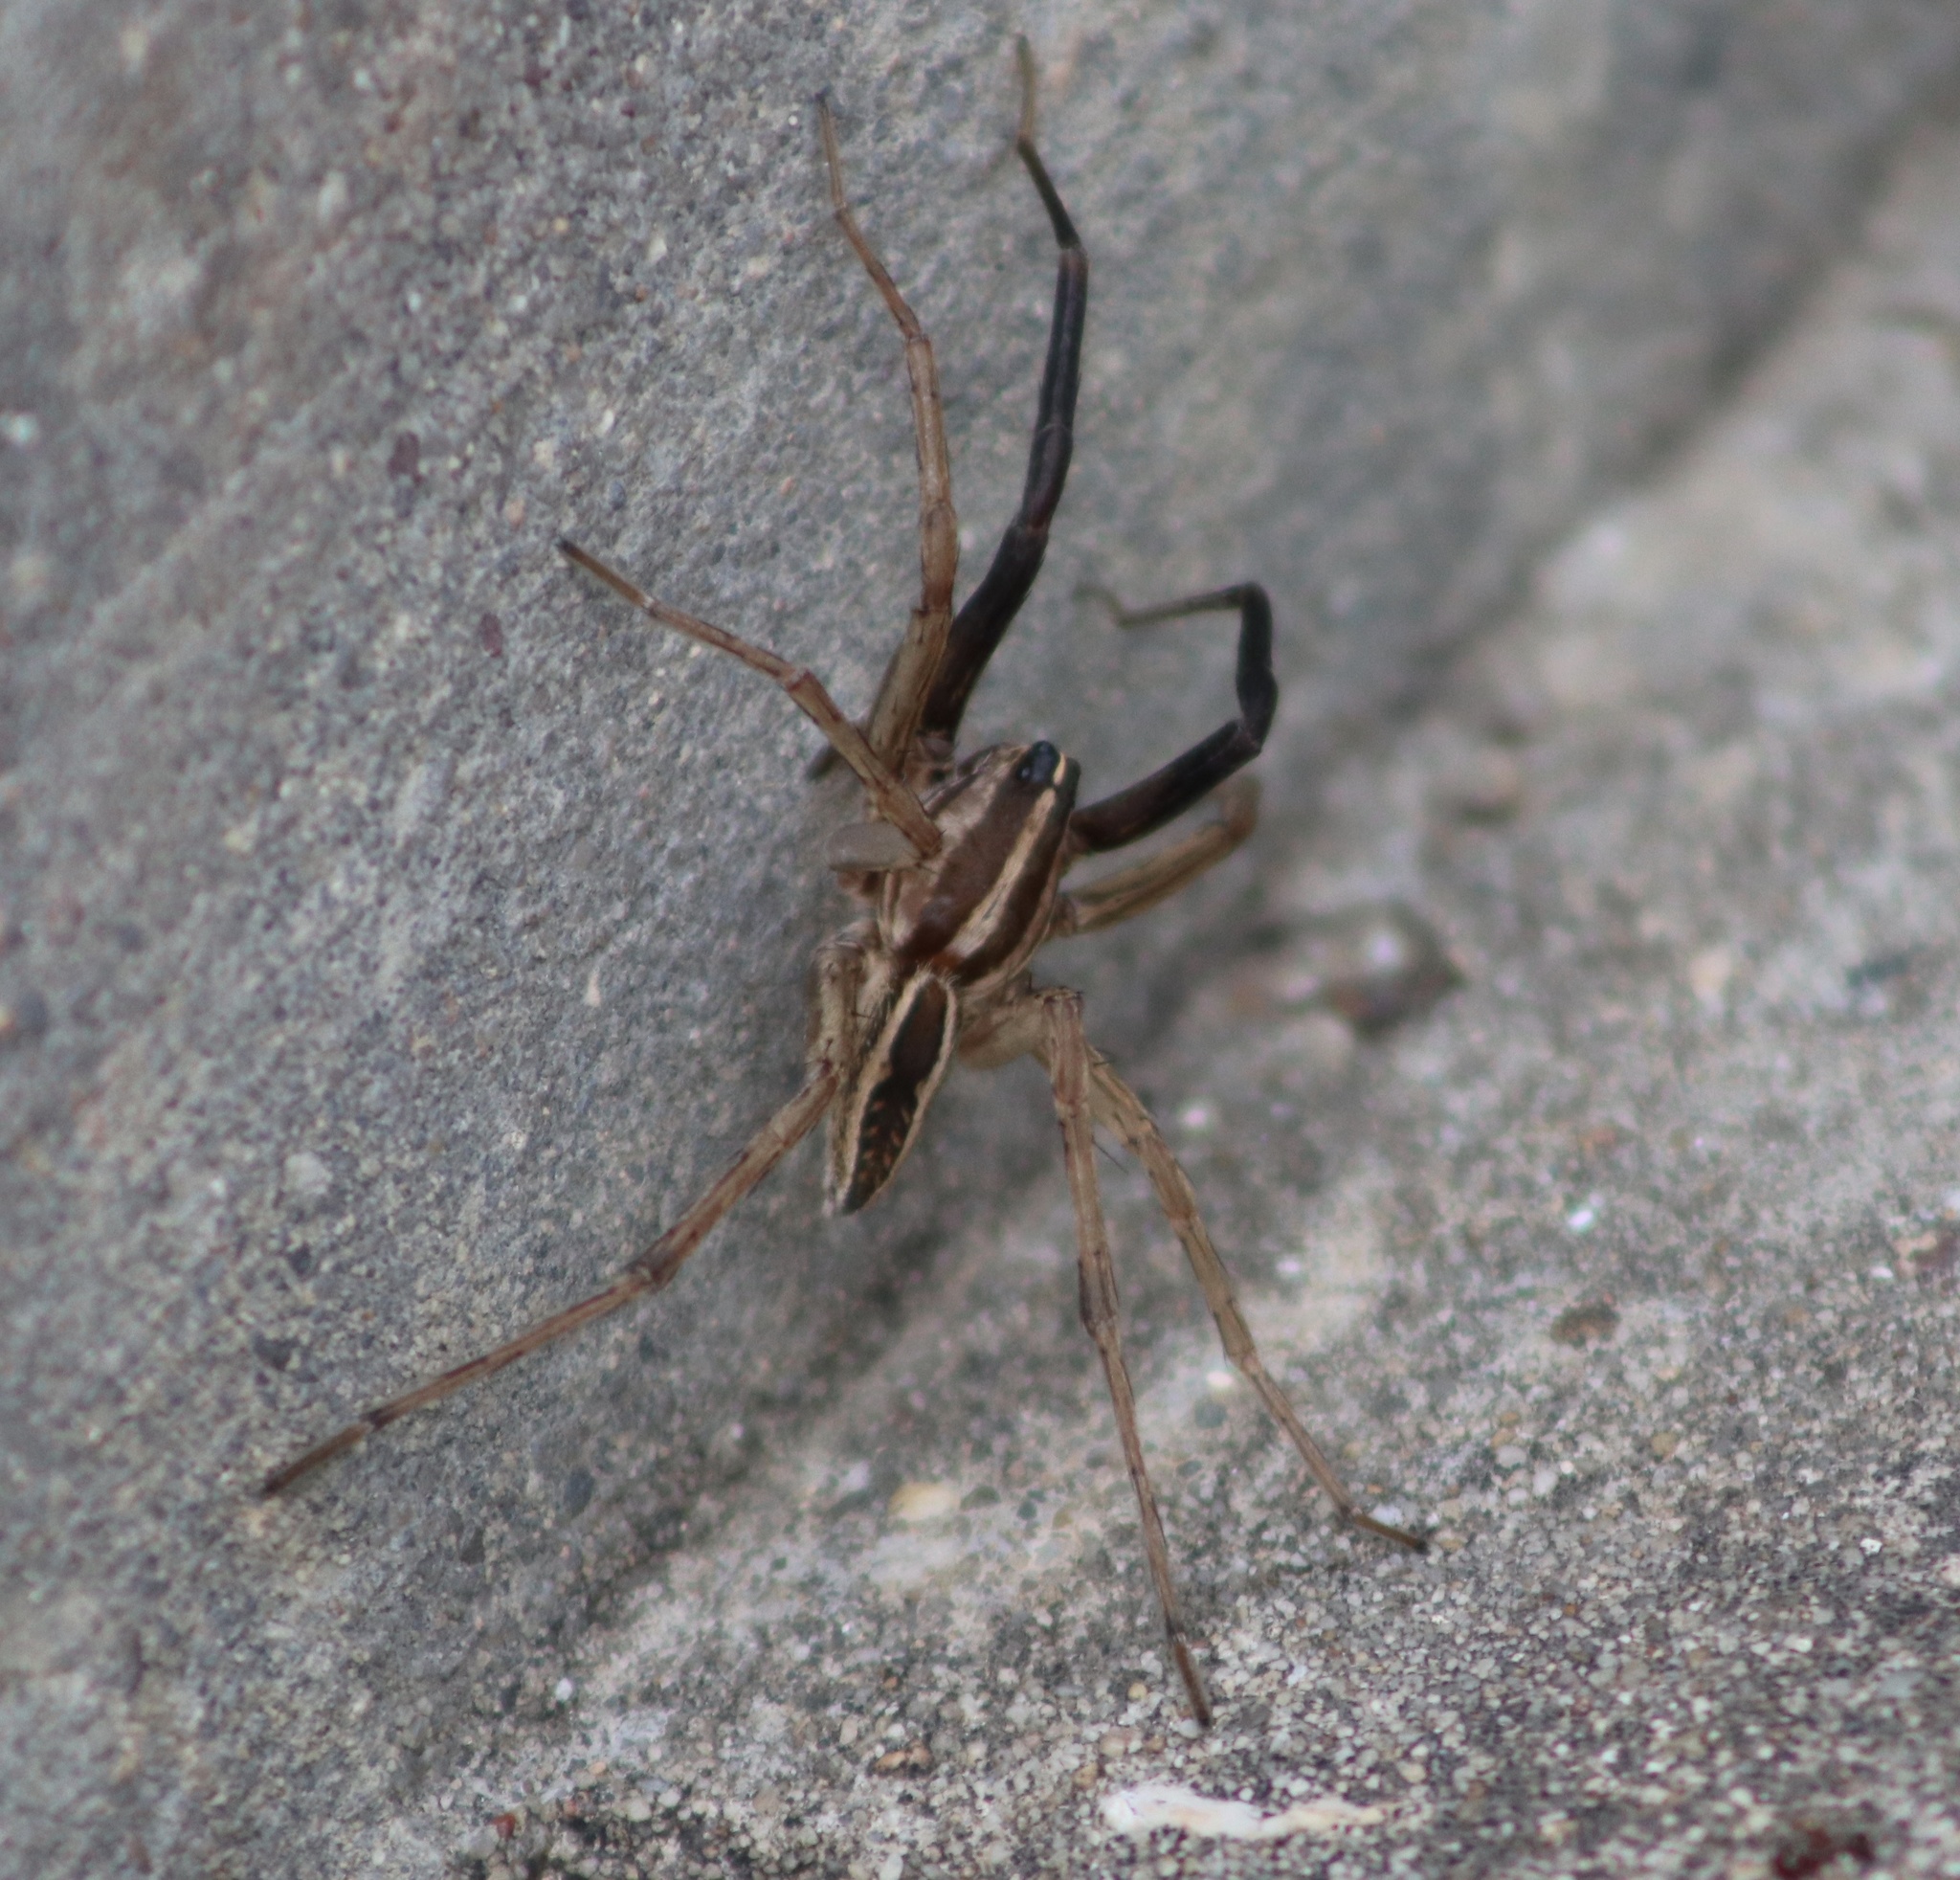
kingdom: Animalia
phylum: Arthropoda
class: Arachnida
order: Araneae
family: Lycosidae
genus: Rabidosa
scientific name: Rabidosa rabida
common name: Rabid wolf spider
